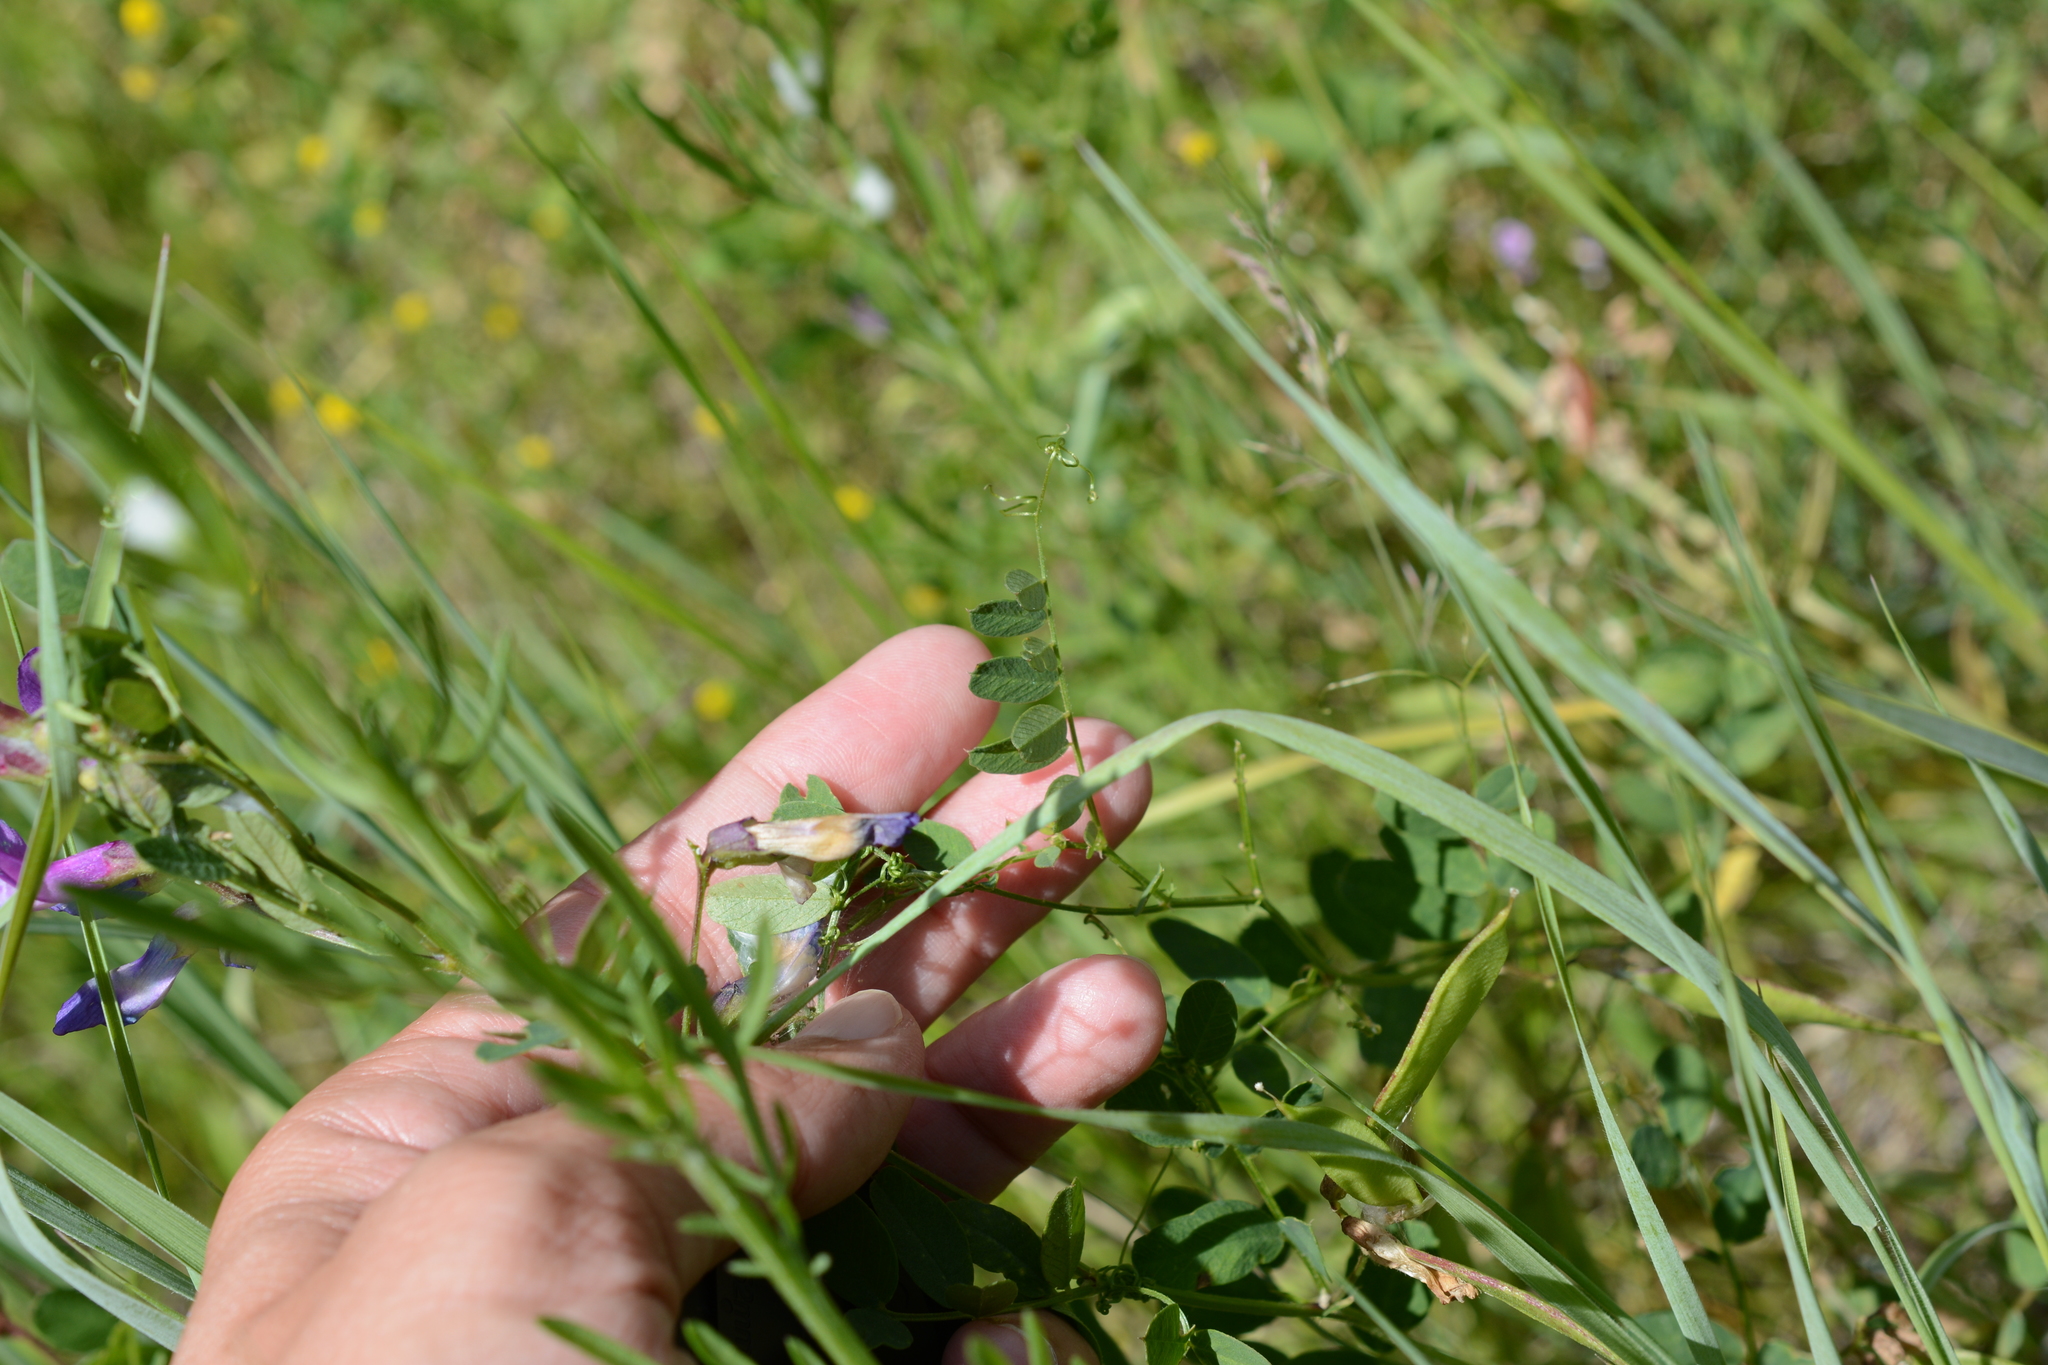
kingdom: Plantae
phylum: Tracheophyta
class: Magnoliopsida
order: Fabales
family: Fabaceae
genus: Vicia
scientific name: Vicia americana
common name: American vetch
